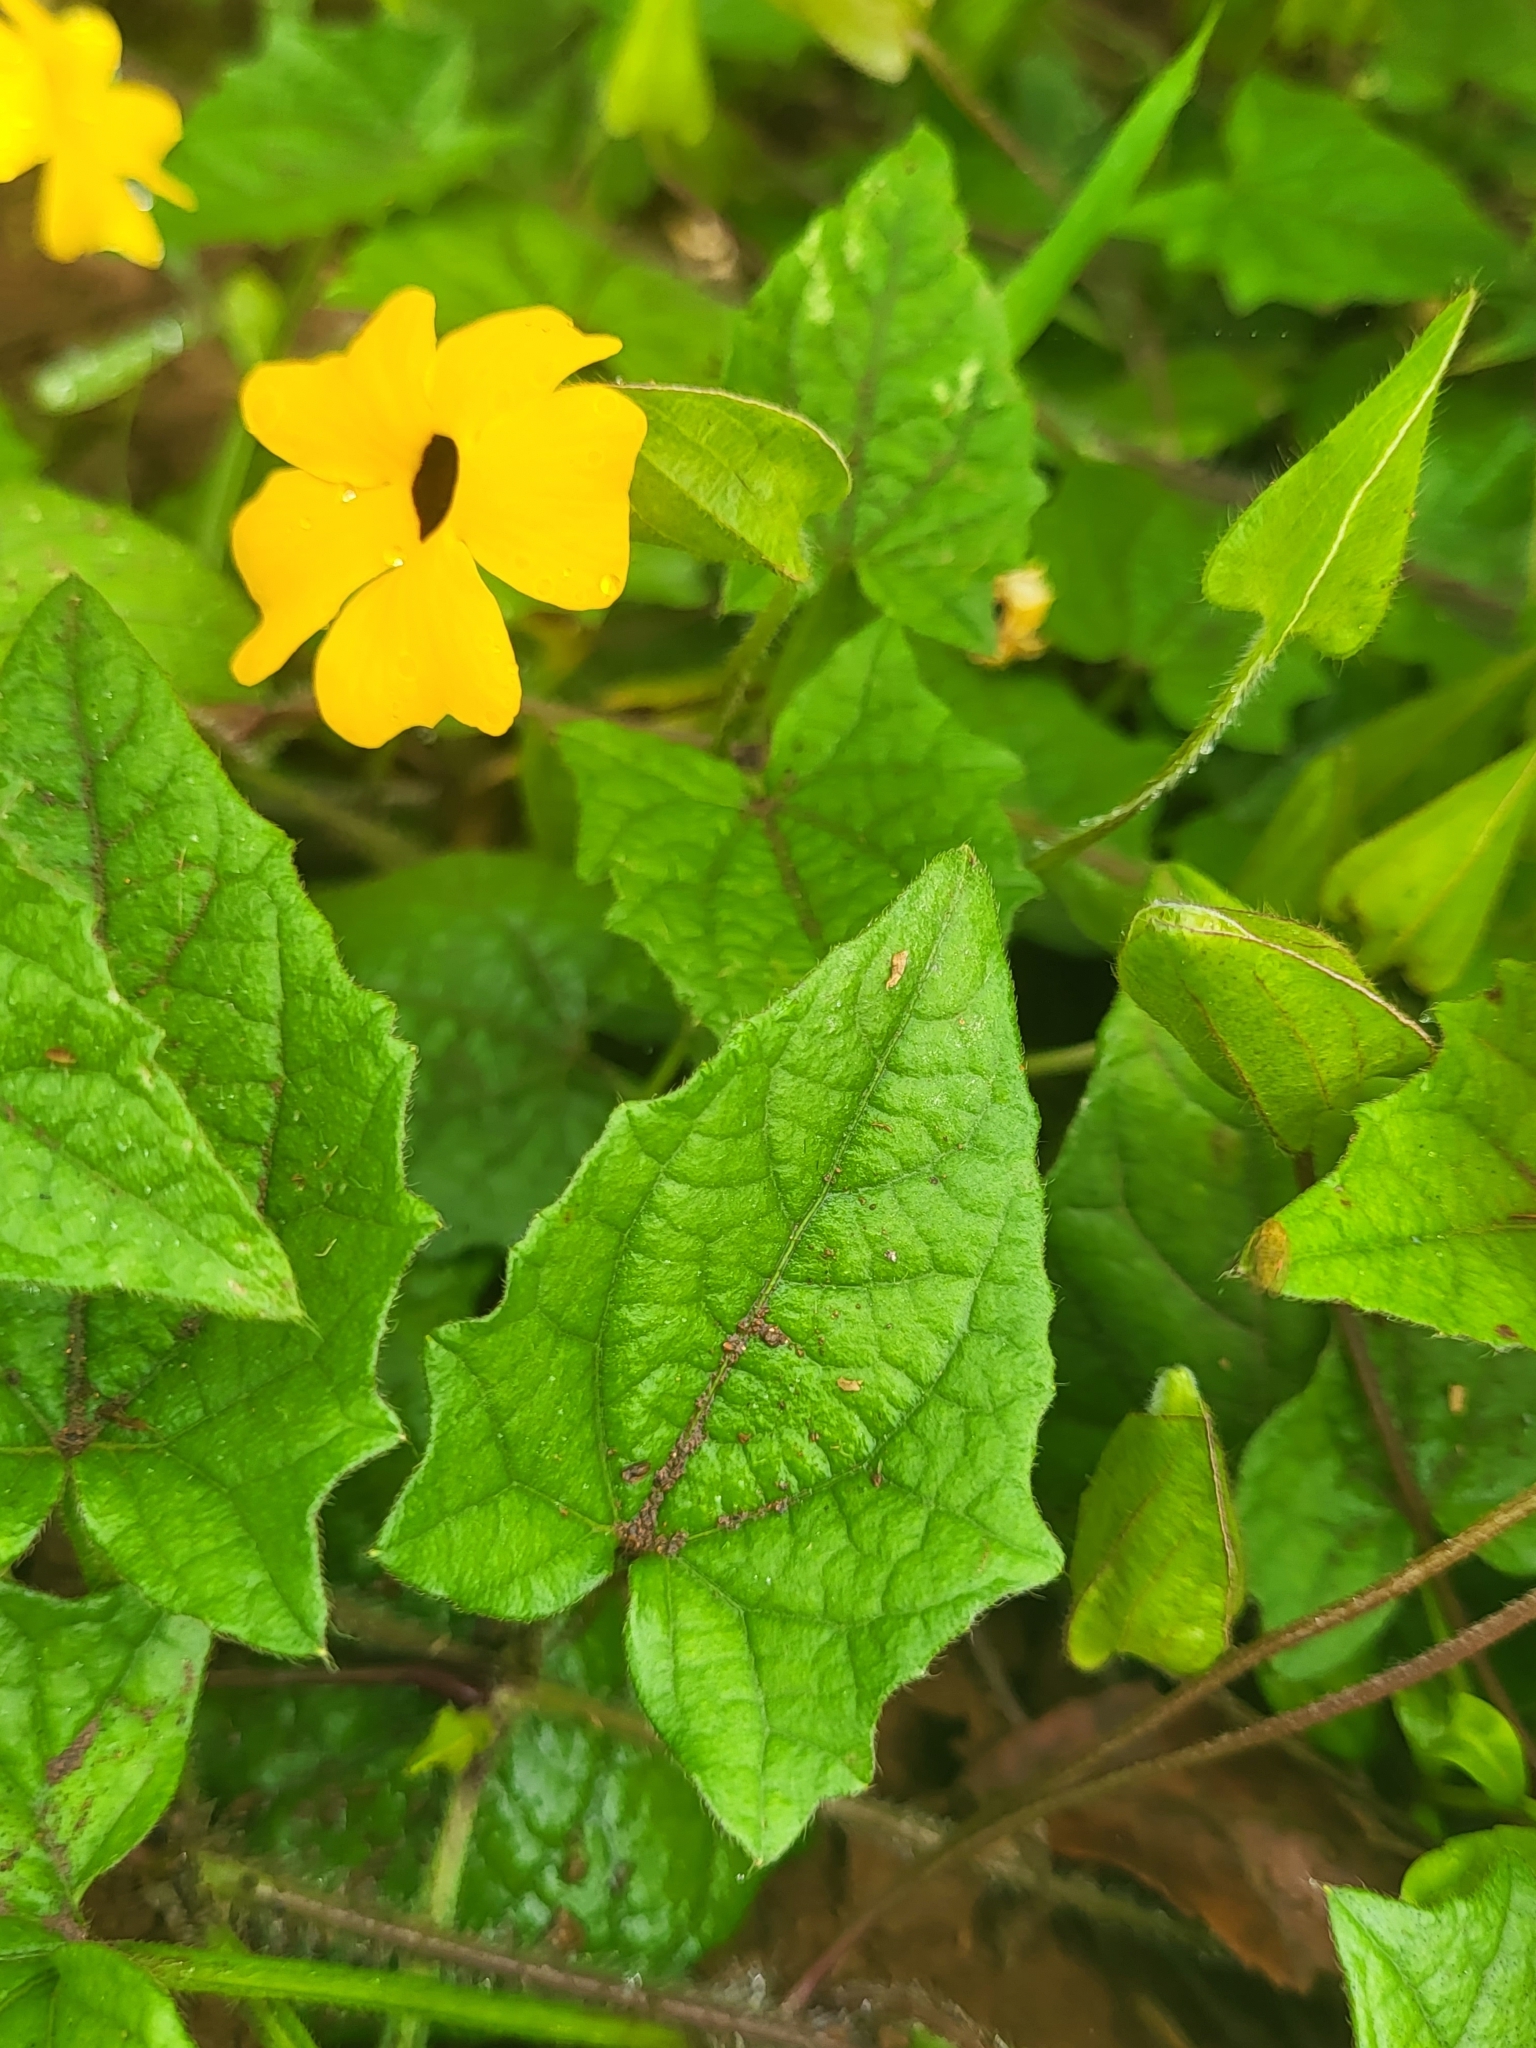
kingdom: Plantae
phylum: Tracheophyta
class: Magnoliopsida
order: Lamiales
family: Acanthaceae
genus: Thunbergia
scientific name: Thunbergia alata
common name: Blackeyed susan vine
